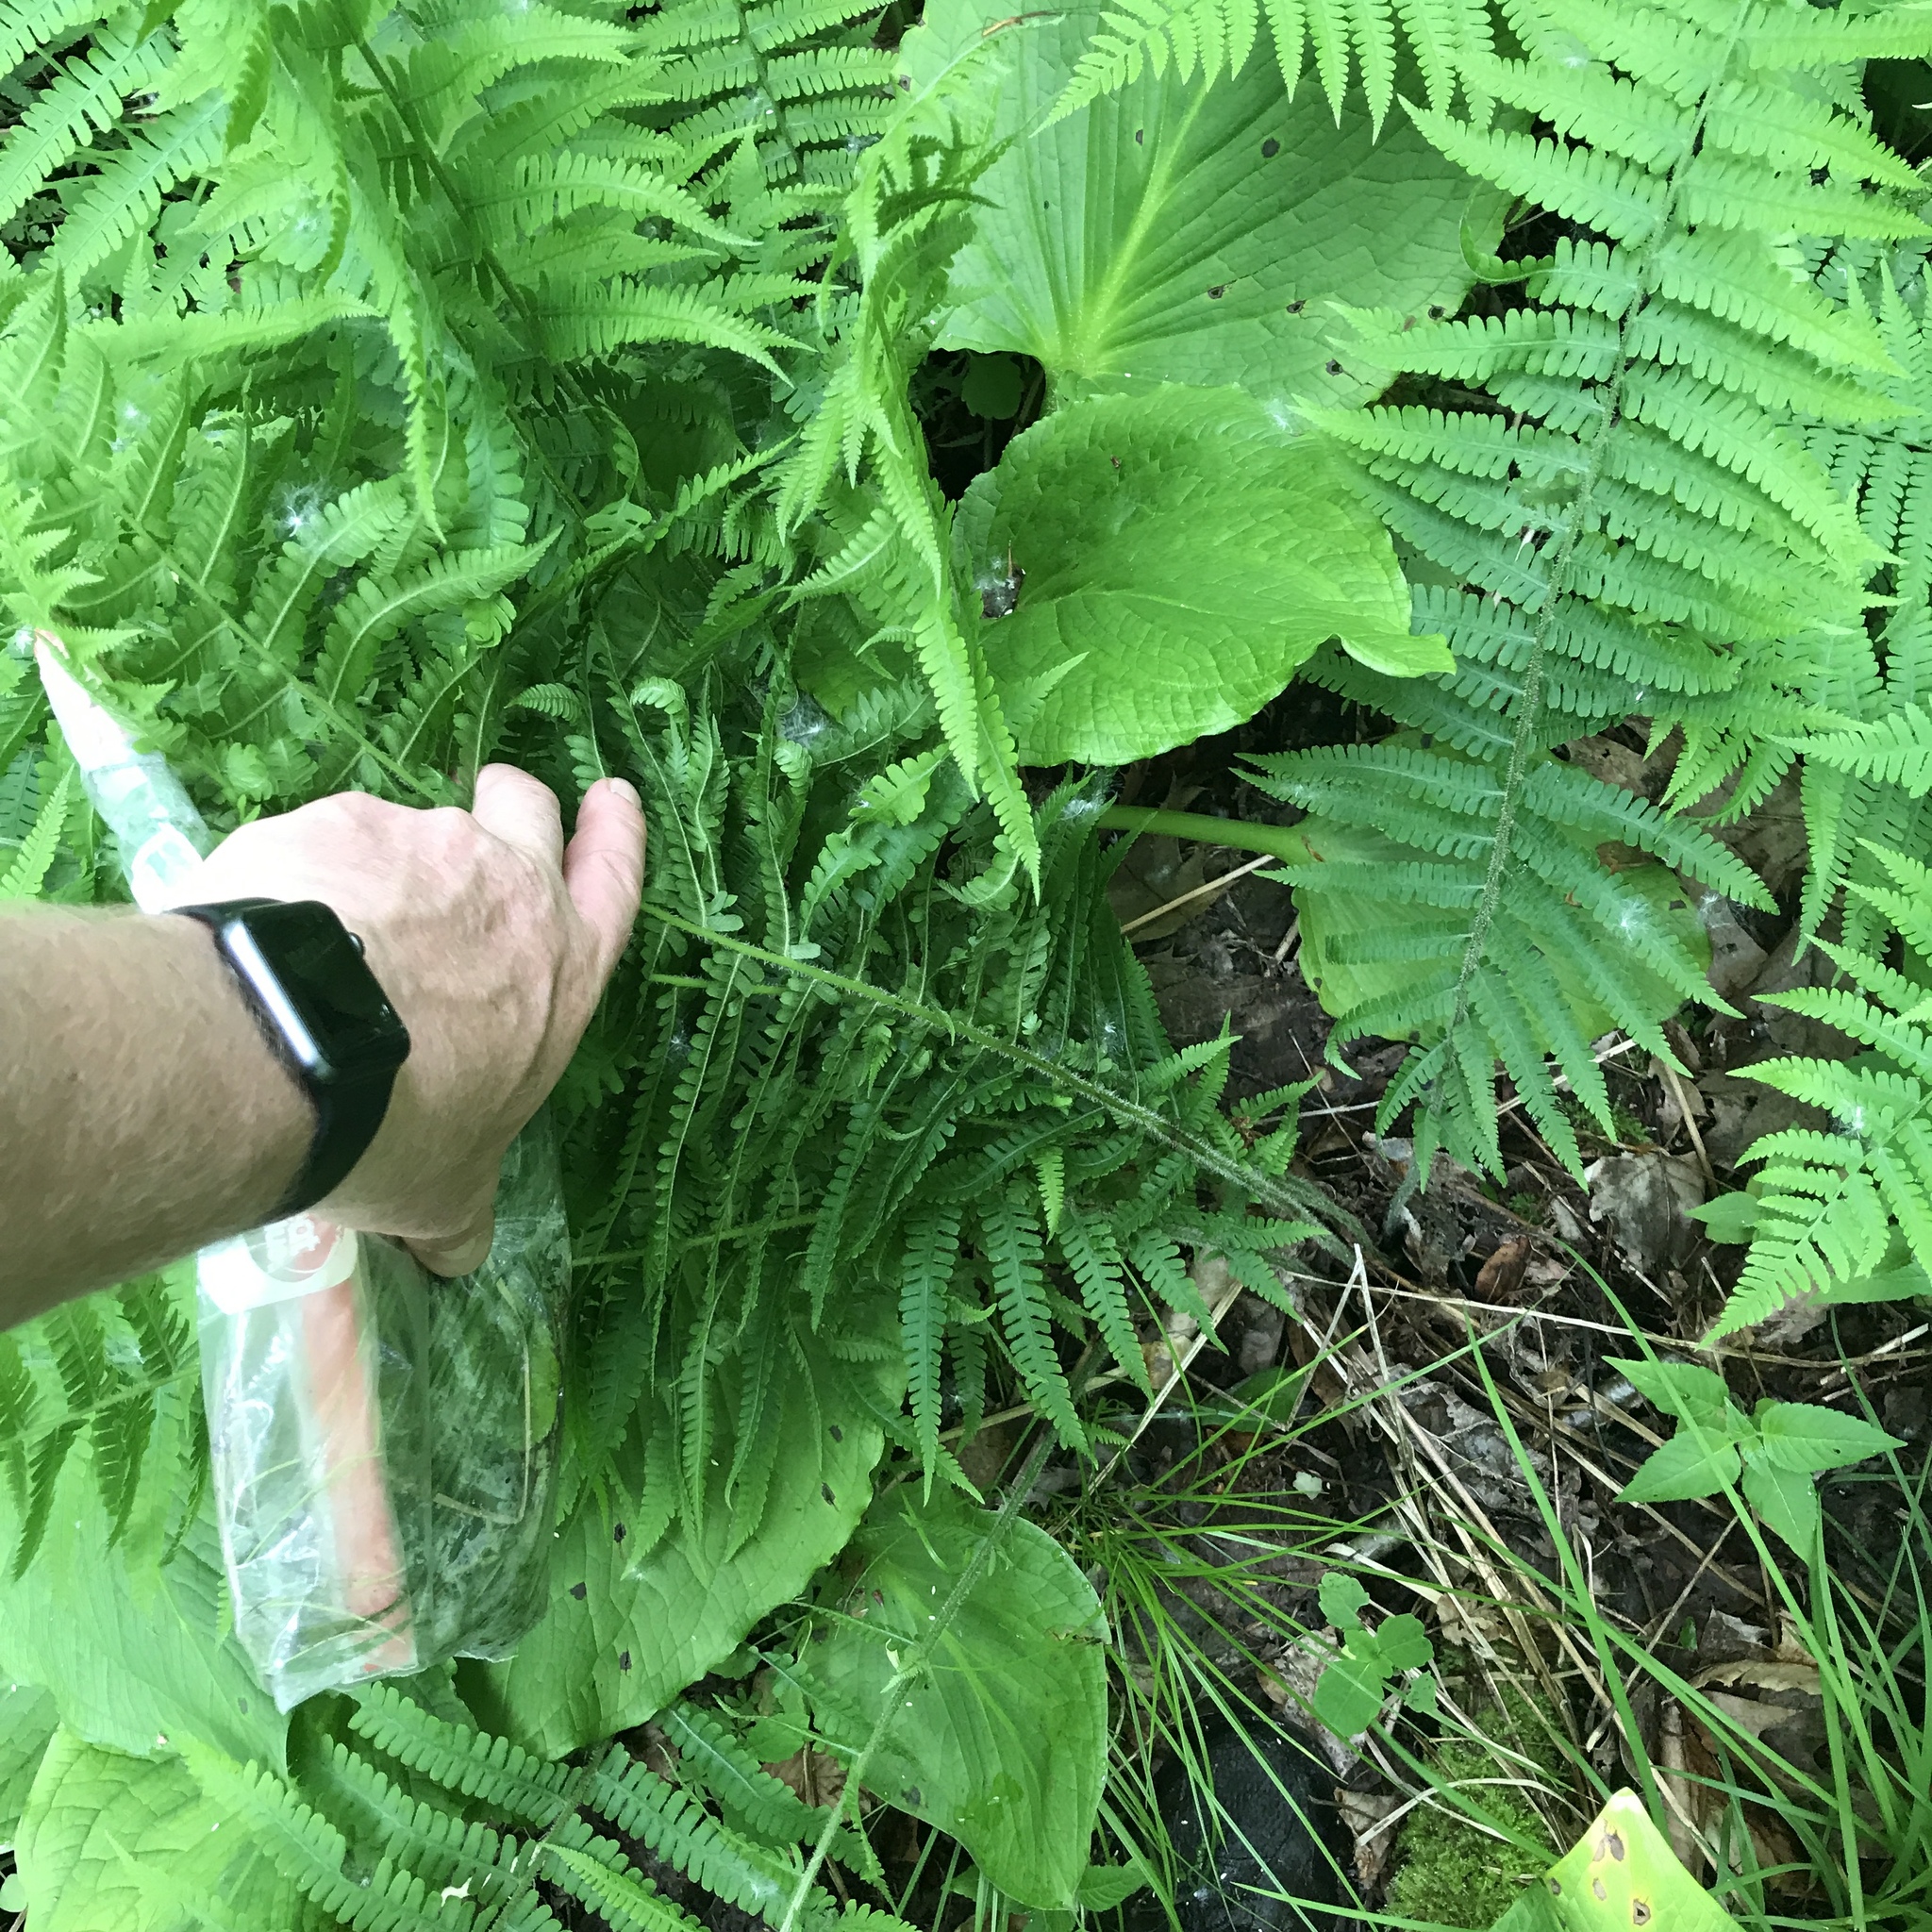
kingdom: Plantae
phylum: Tracheophyta
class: Polypodiopsida
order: Polypodiales
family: Athyriaceae
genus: Deparia
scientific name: Deparia acrostichoides
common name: Silver false spleenwort
